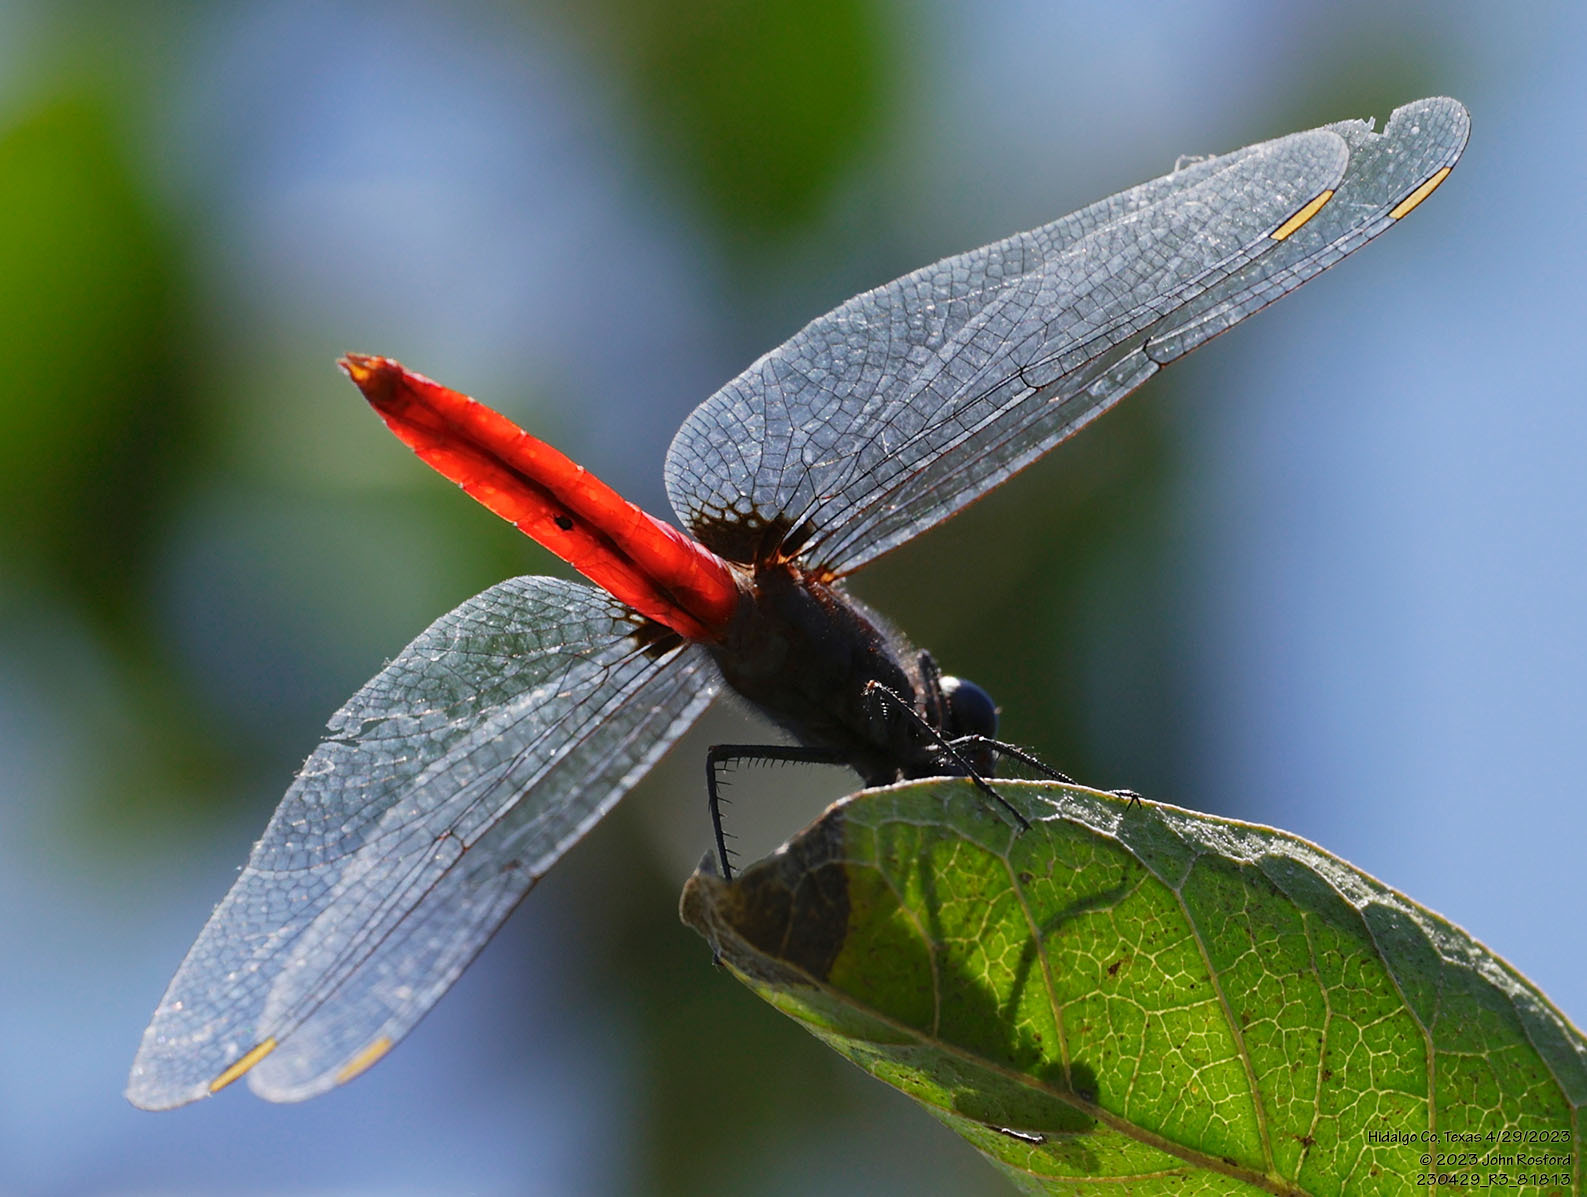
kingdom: Animalia
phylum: Arthropoda
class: Insecta
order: Odonata
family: Libellulidae
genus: Planiplax
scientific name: Planiplax sanguiniventris
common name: Mexican scarlet-tail
